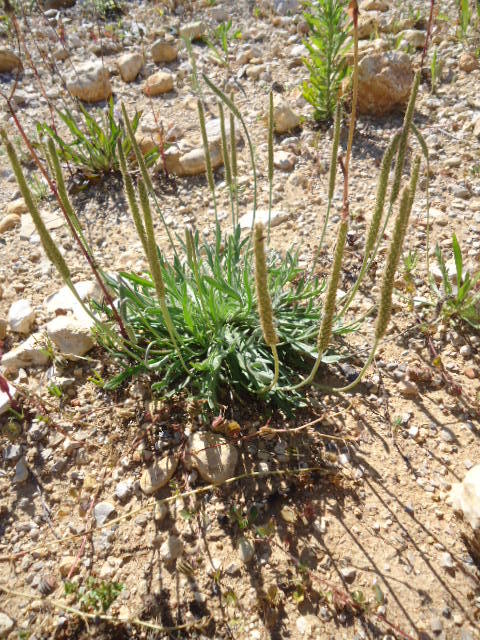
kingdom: Plantae
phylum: Tracheophyta
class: Magnoliopsida
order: Lamiales
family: Plantaginaceae
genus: Plantago
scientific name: Plantago coronopus
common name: Buck's-horn plantain
